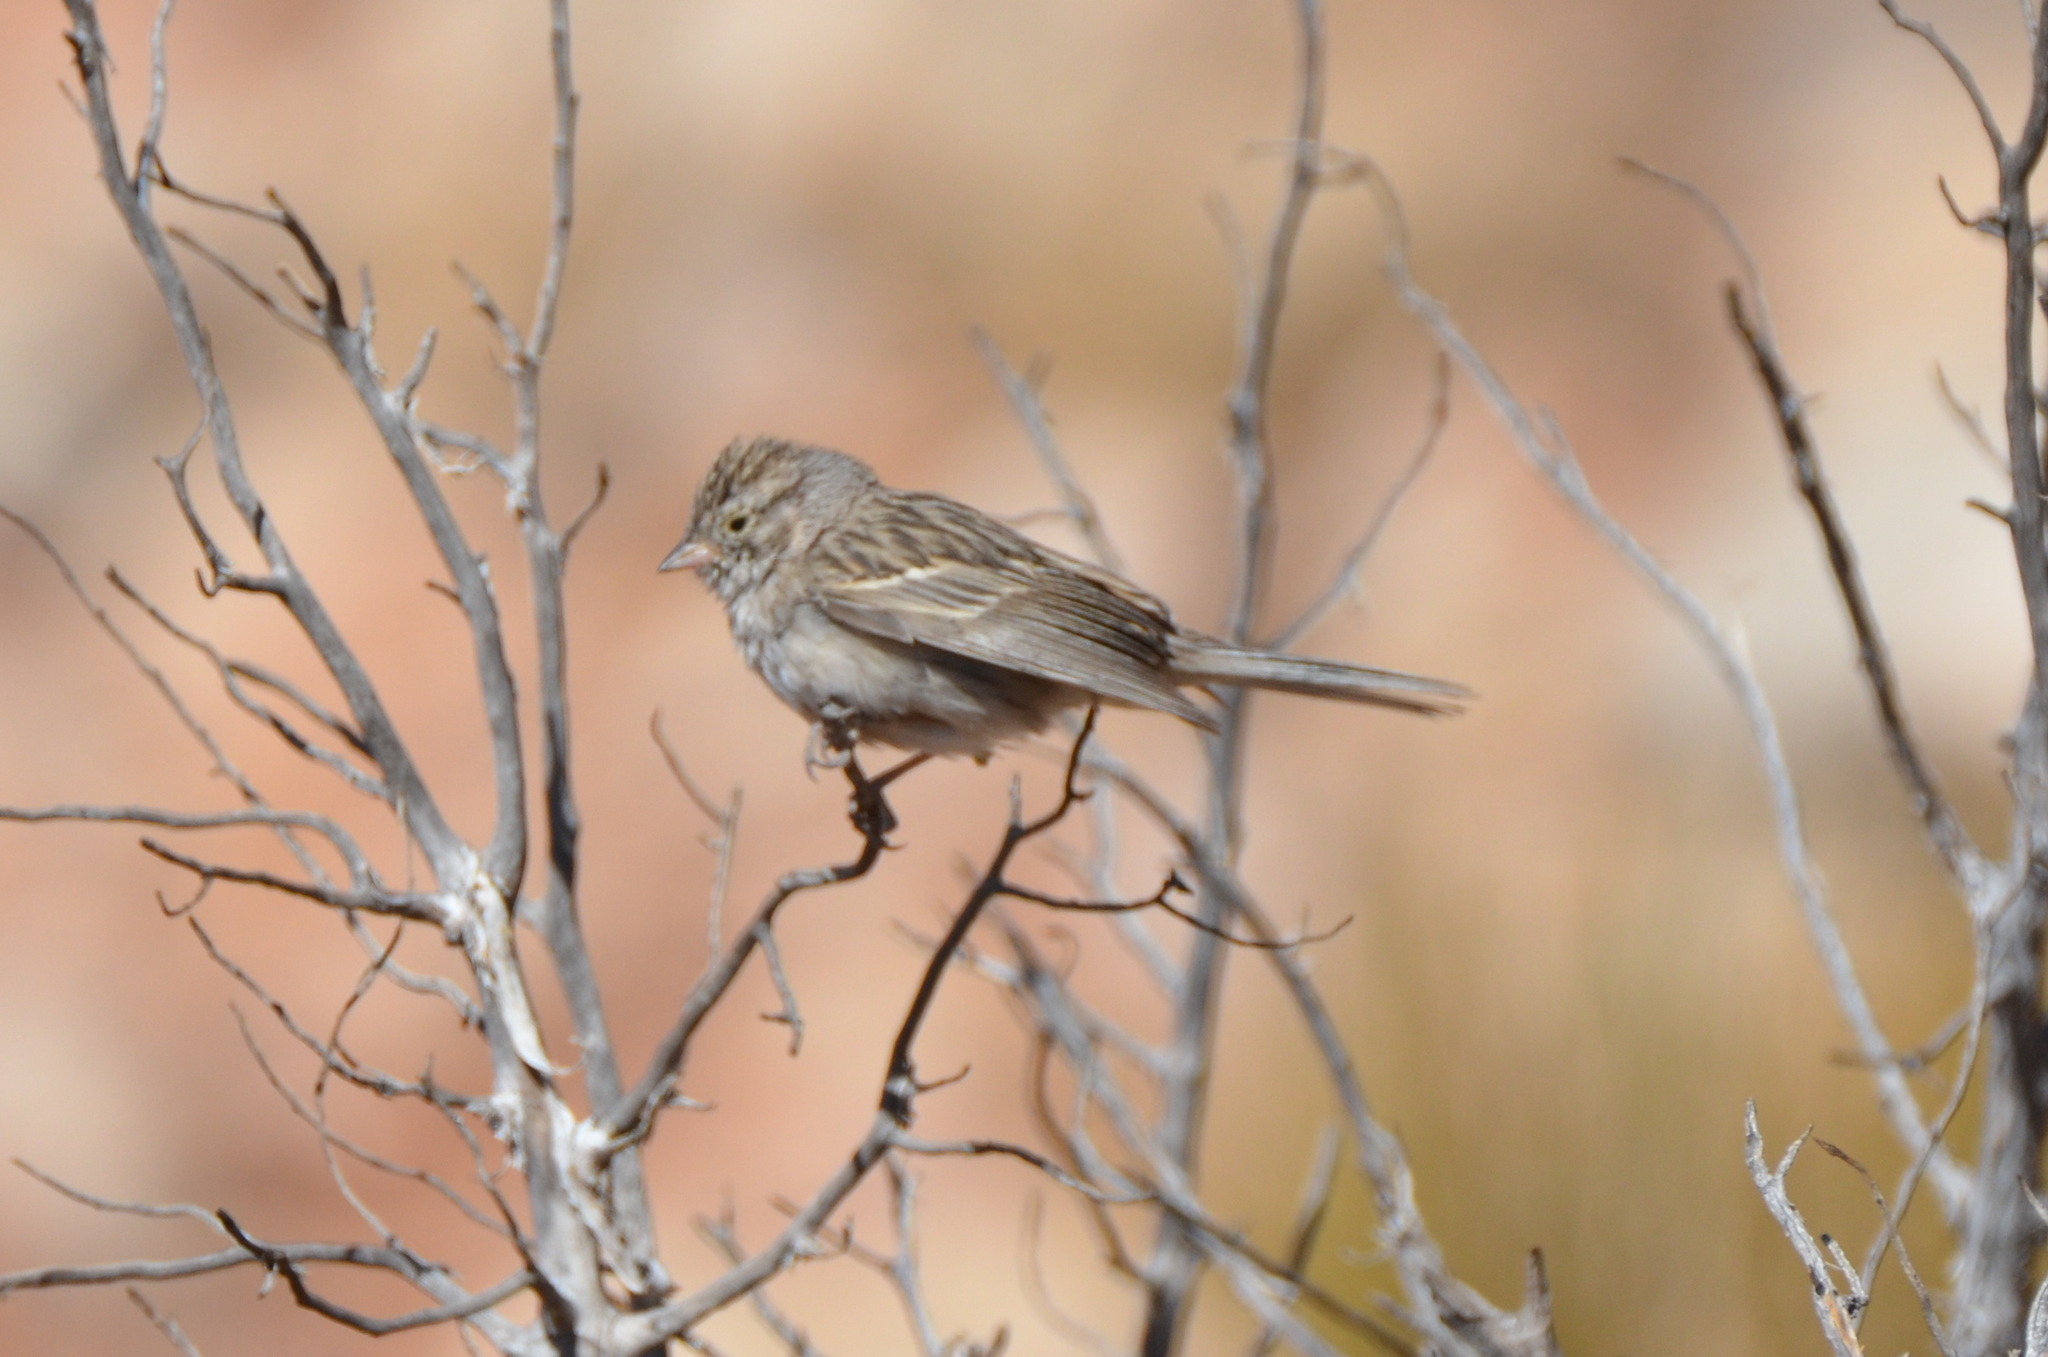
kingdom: Animalia
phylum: Chordata
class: Aves
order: Passeriformes
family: Passerellidae
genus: Spizella
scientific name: Spizella breweri
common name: Brewer's sparrow
